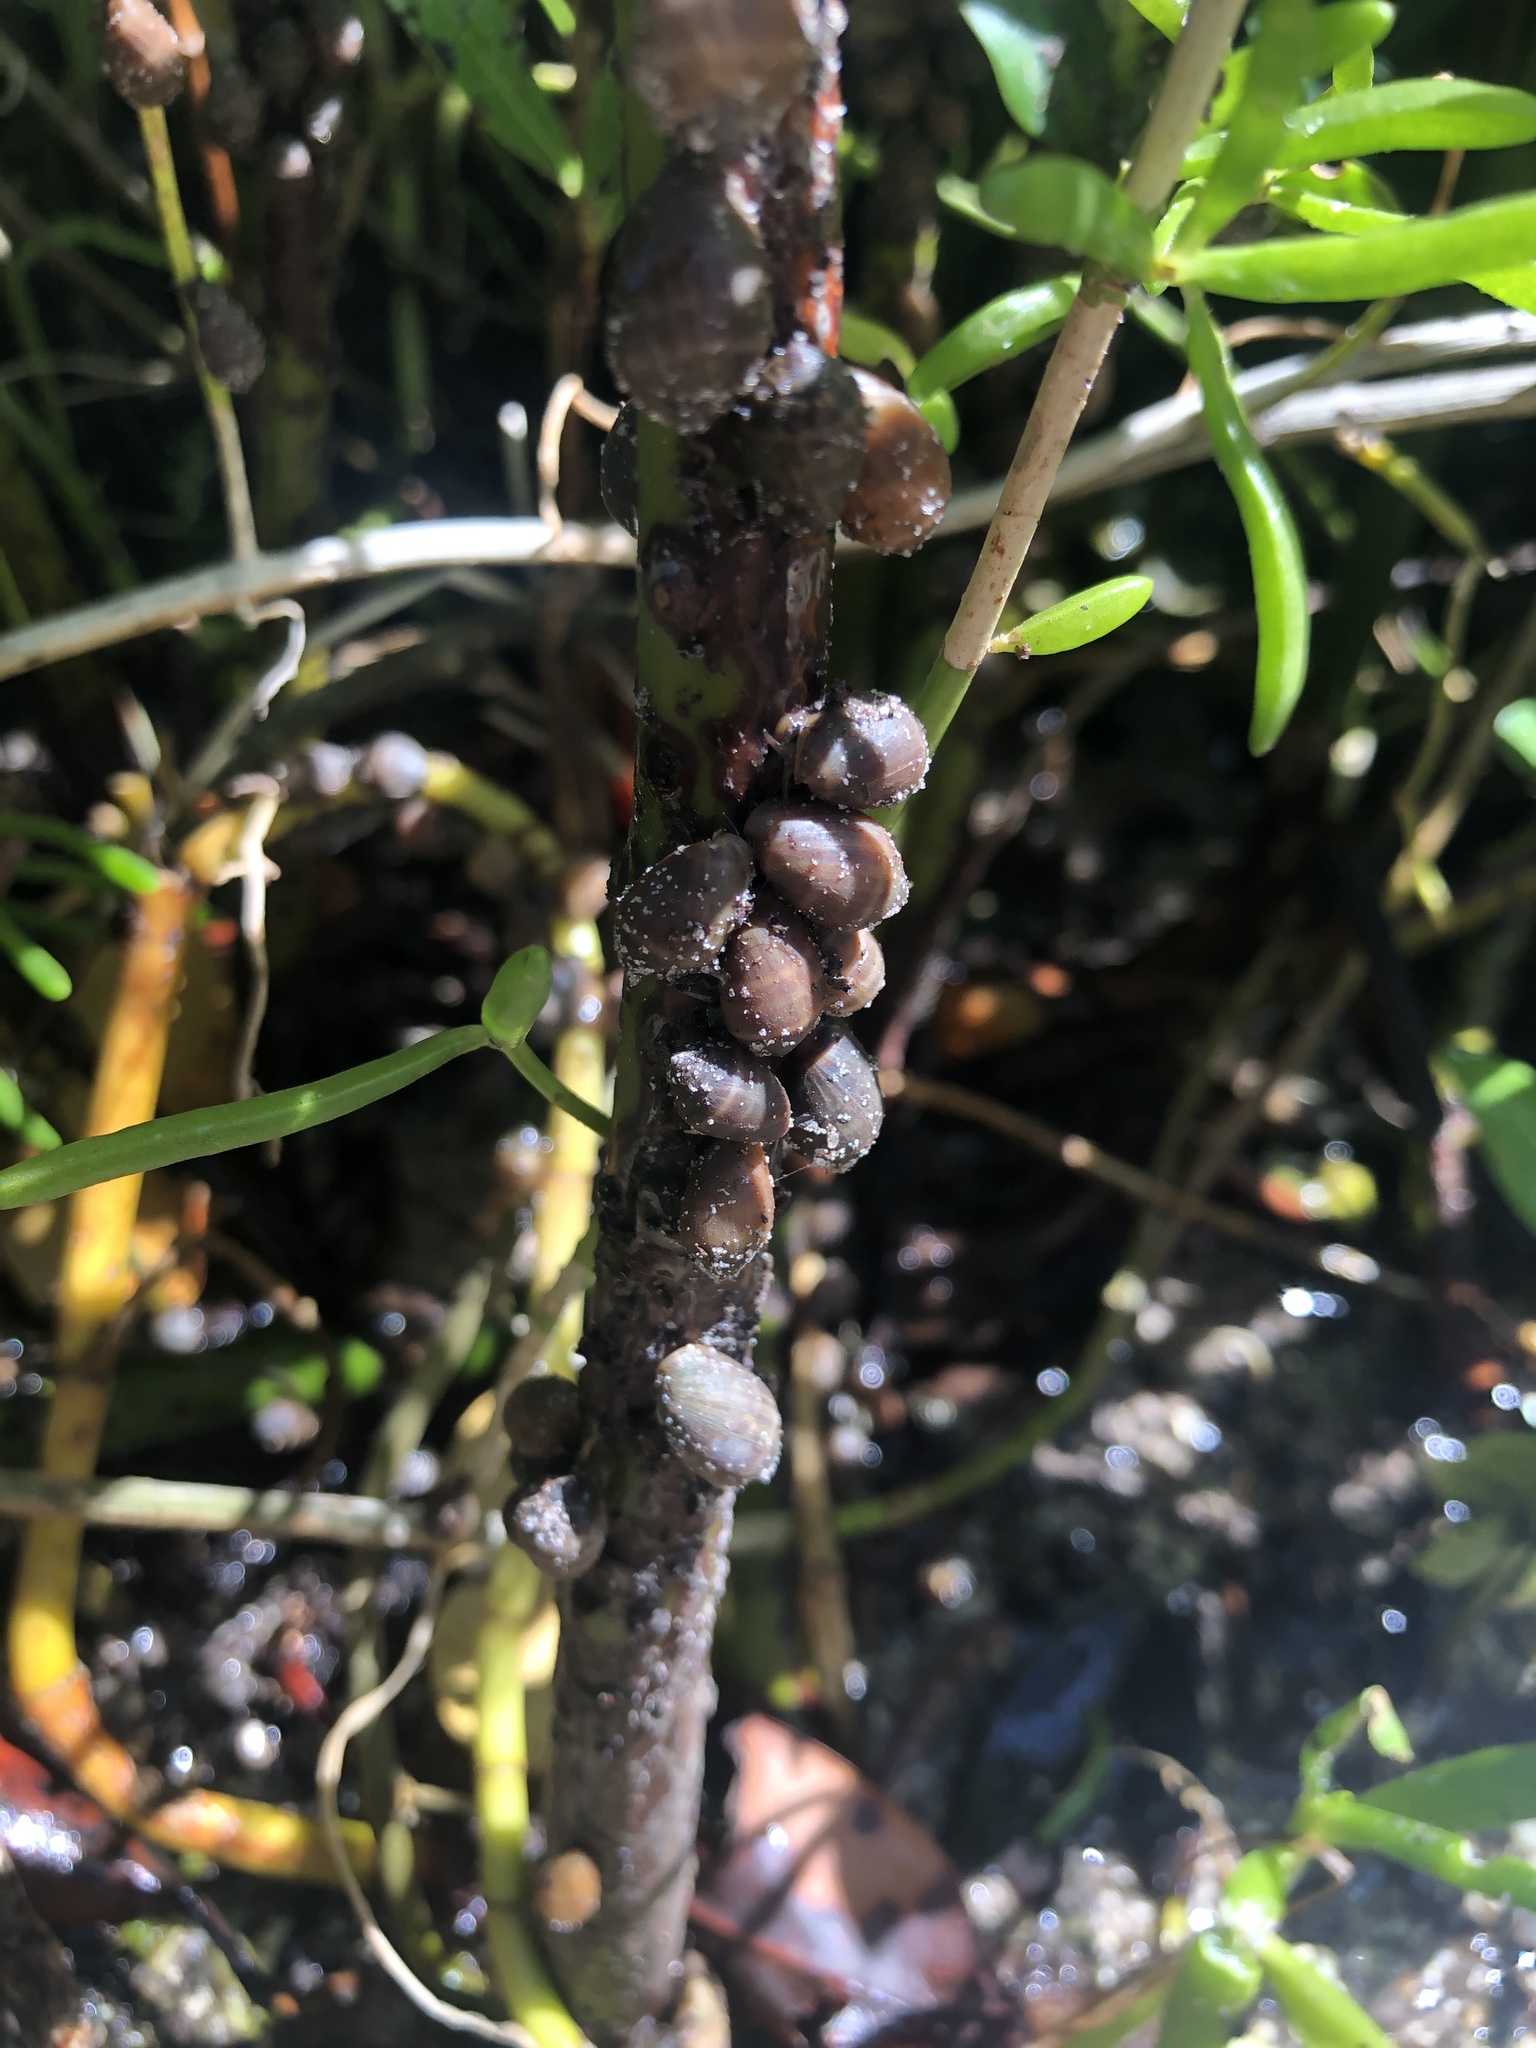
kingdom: Animalia
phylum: Mollusca
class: Gastropoda
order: Ellobiida
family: Ellobiidae
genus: Melampus
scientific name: Melampus coffea
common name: Coffee bean snail
